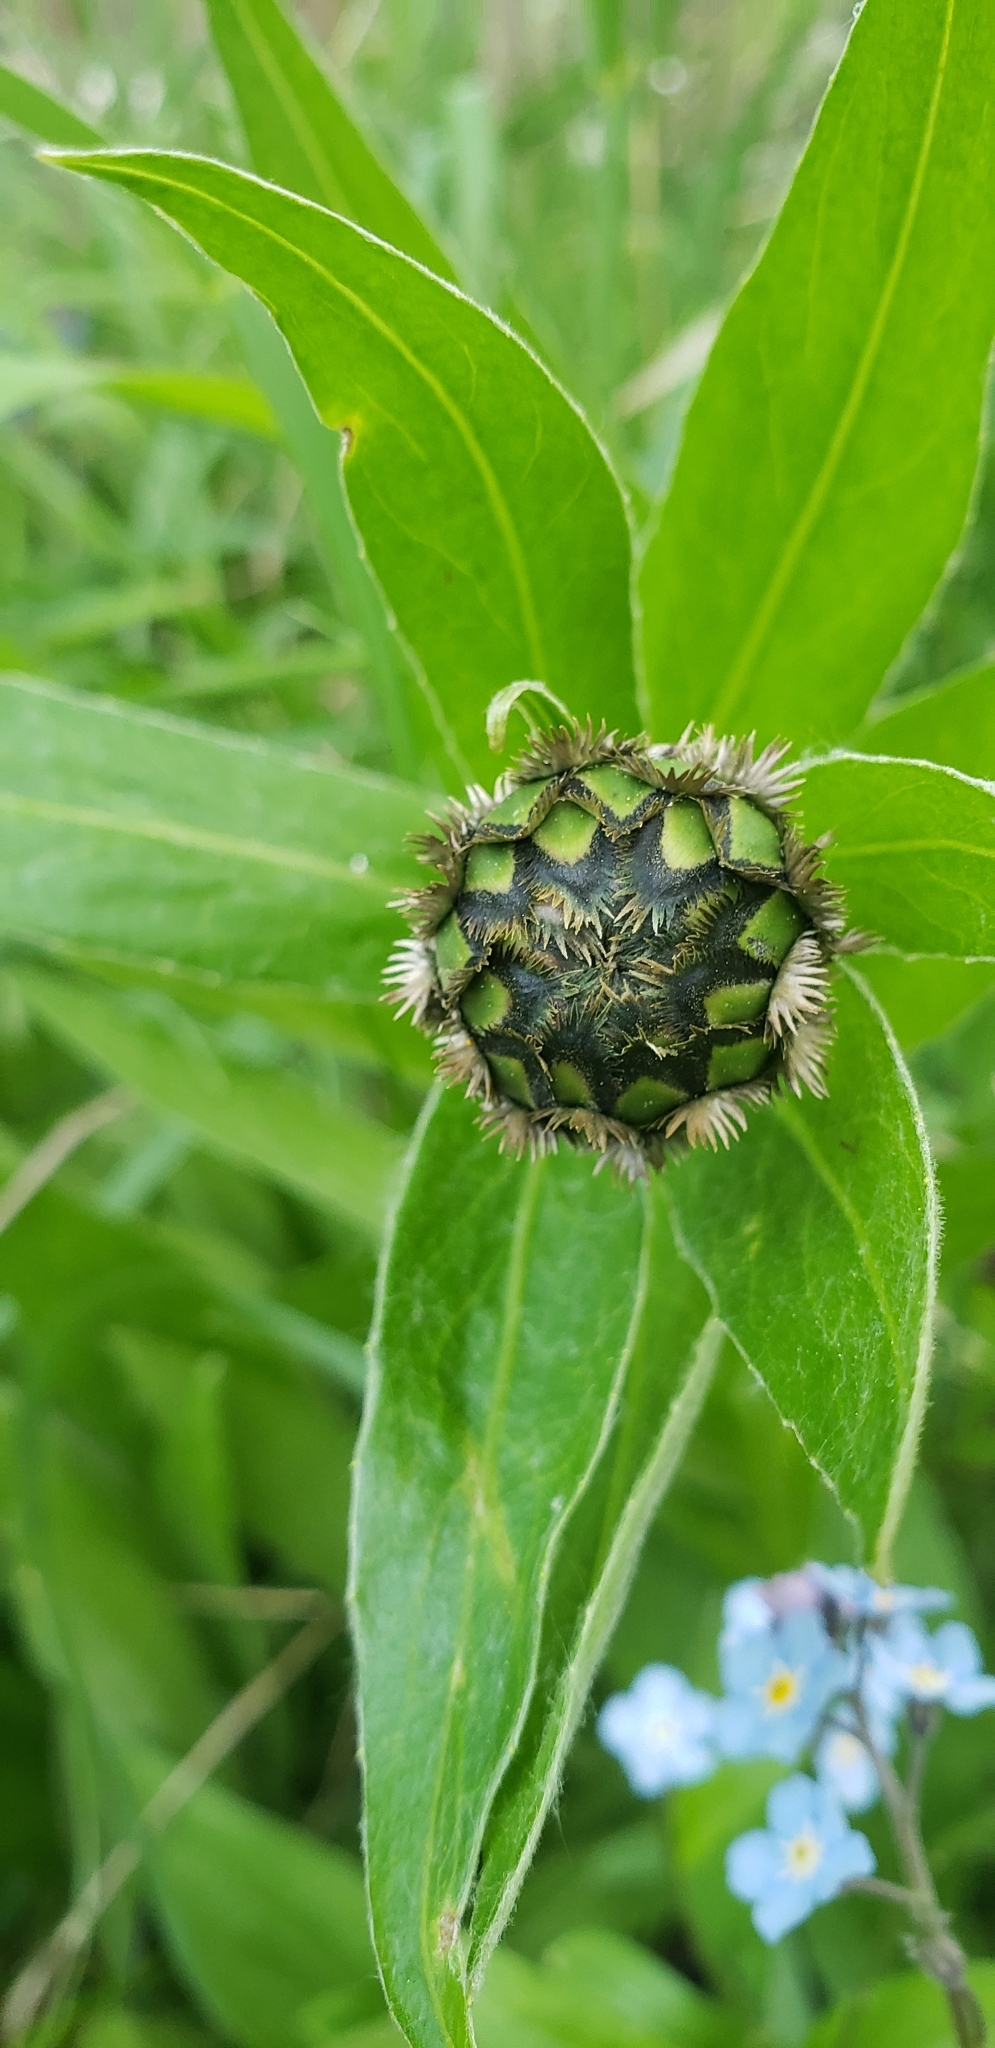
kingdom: Plantae
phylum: Tracheophyta
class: Magnoliopsida
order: Asterales
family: Asteraceae
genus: Centaurea
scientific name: Centaurea montana
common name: Perennial cornflower
